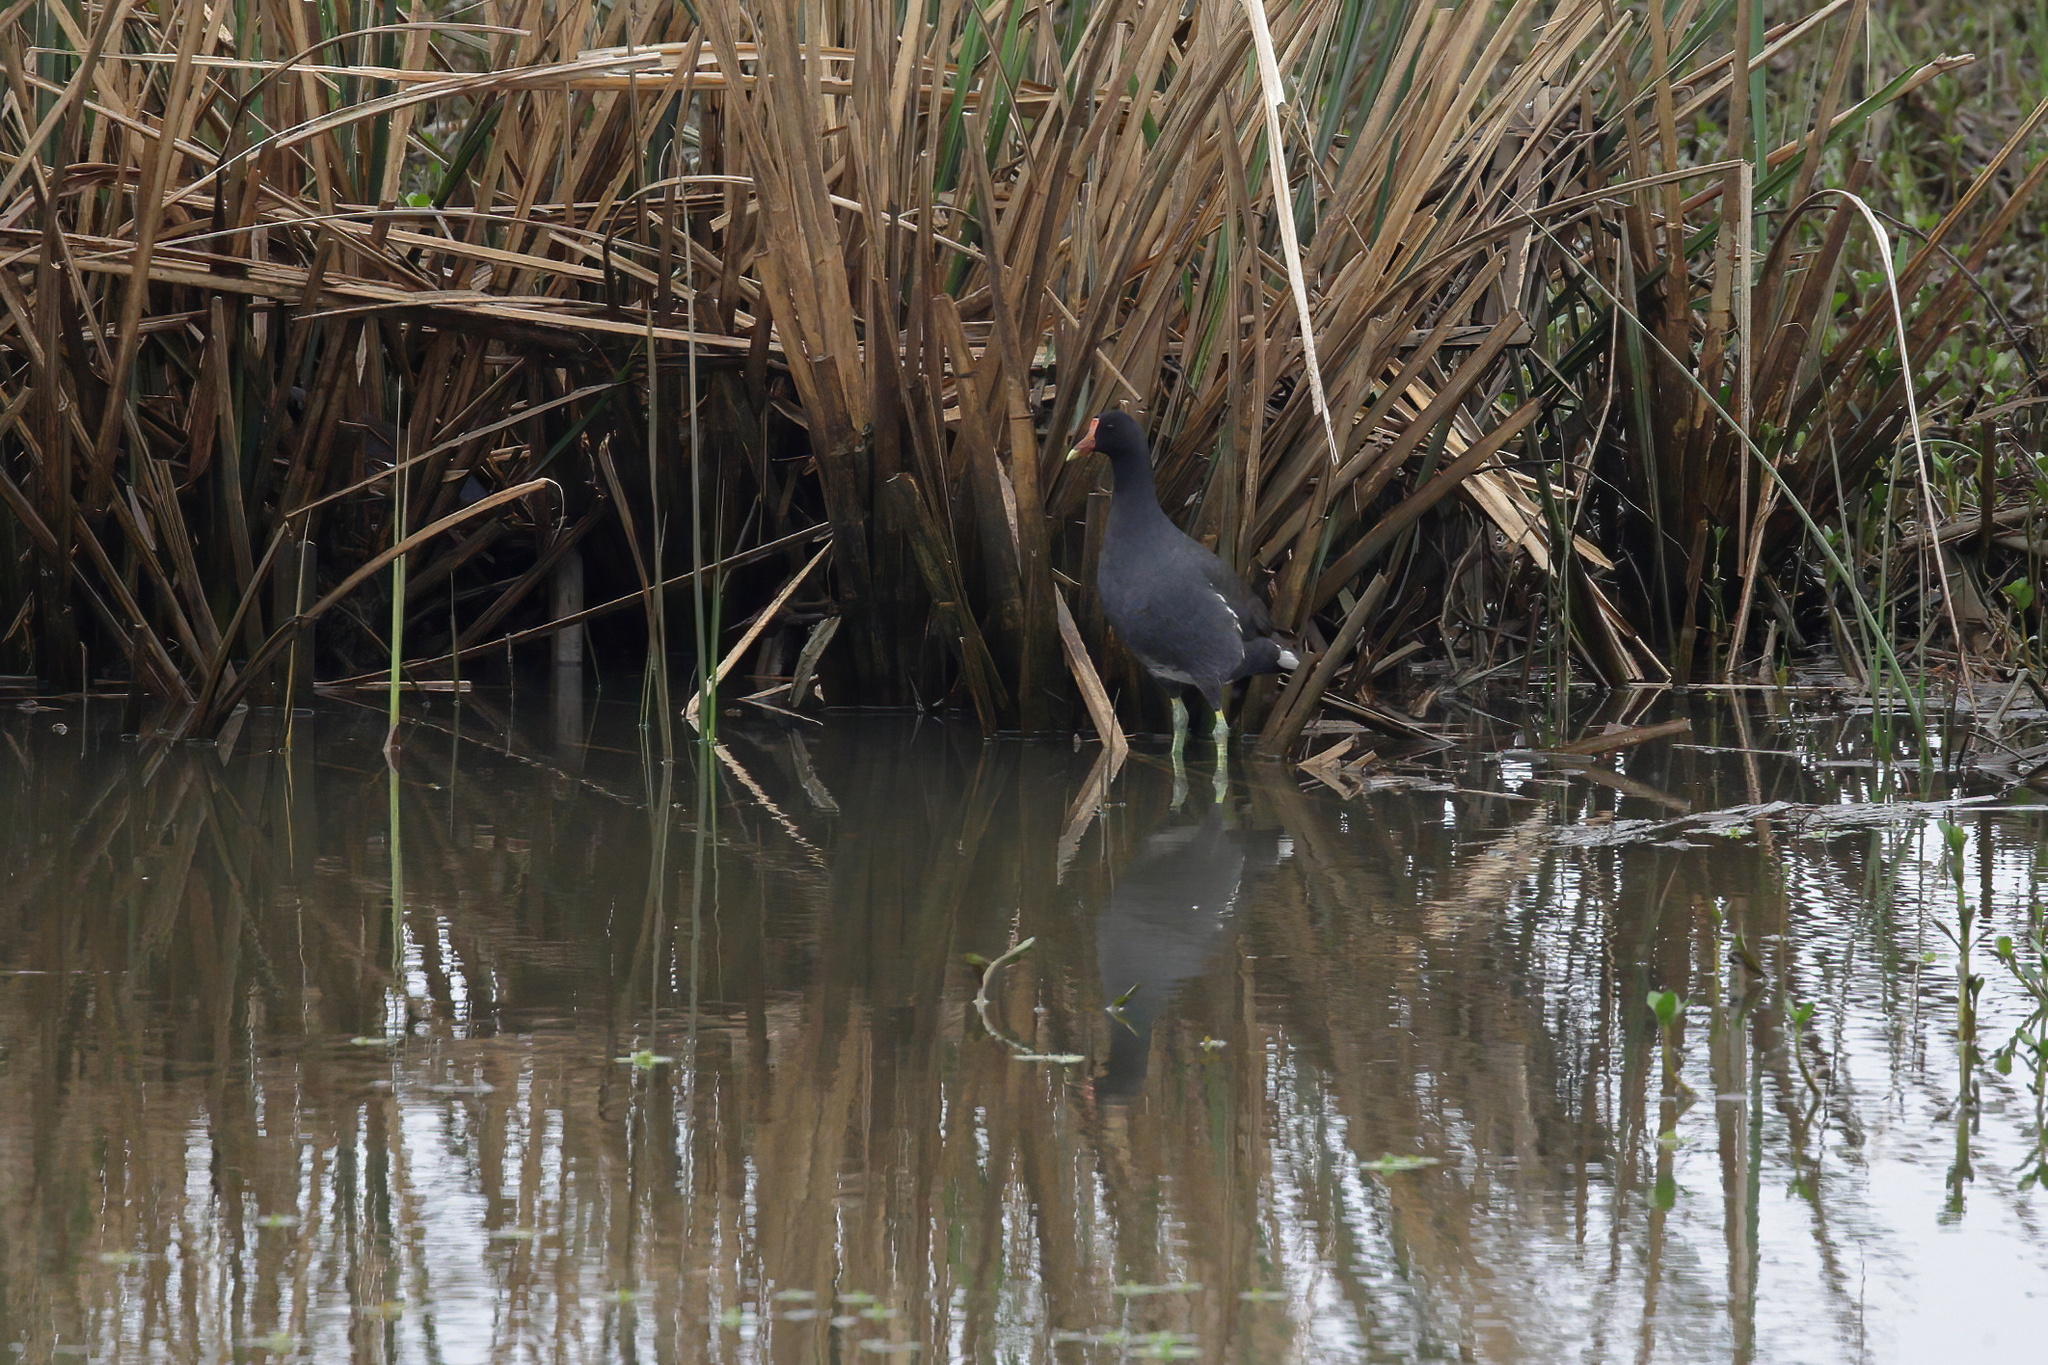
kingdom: Animalia
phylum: Chordata
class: Aves
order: Gruiformes
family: Rallidae
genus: Gallinula
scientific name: Gallinula chloropus
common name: Common moorhen
